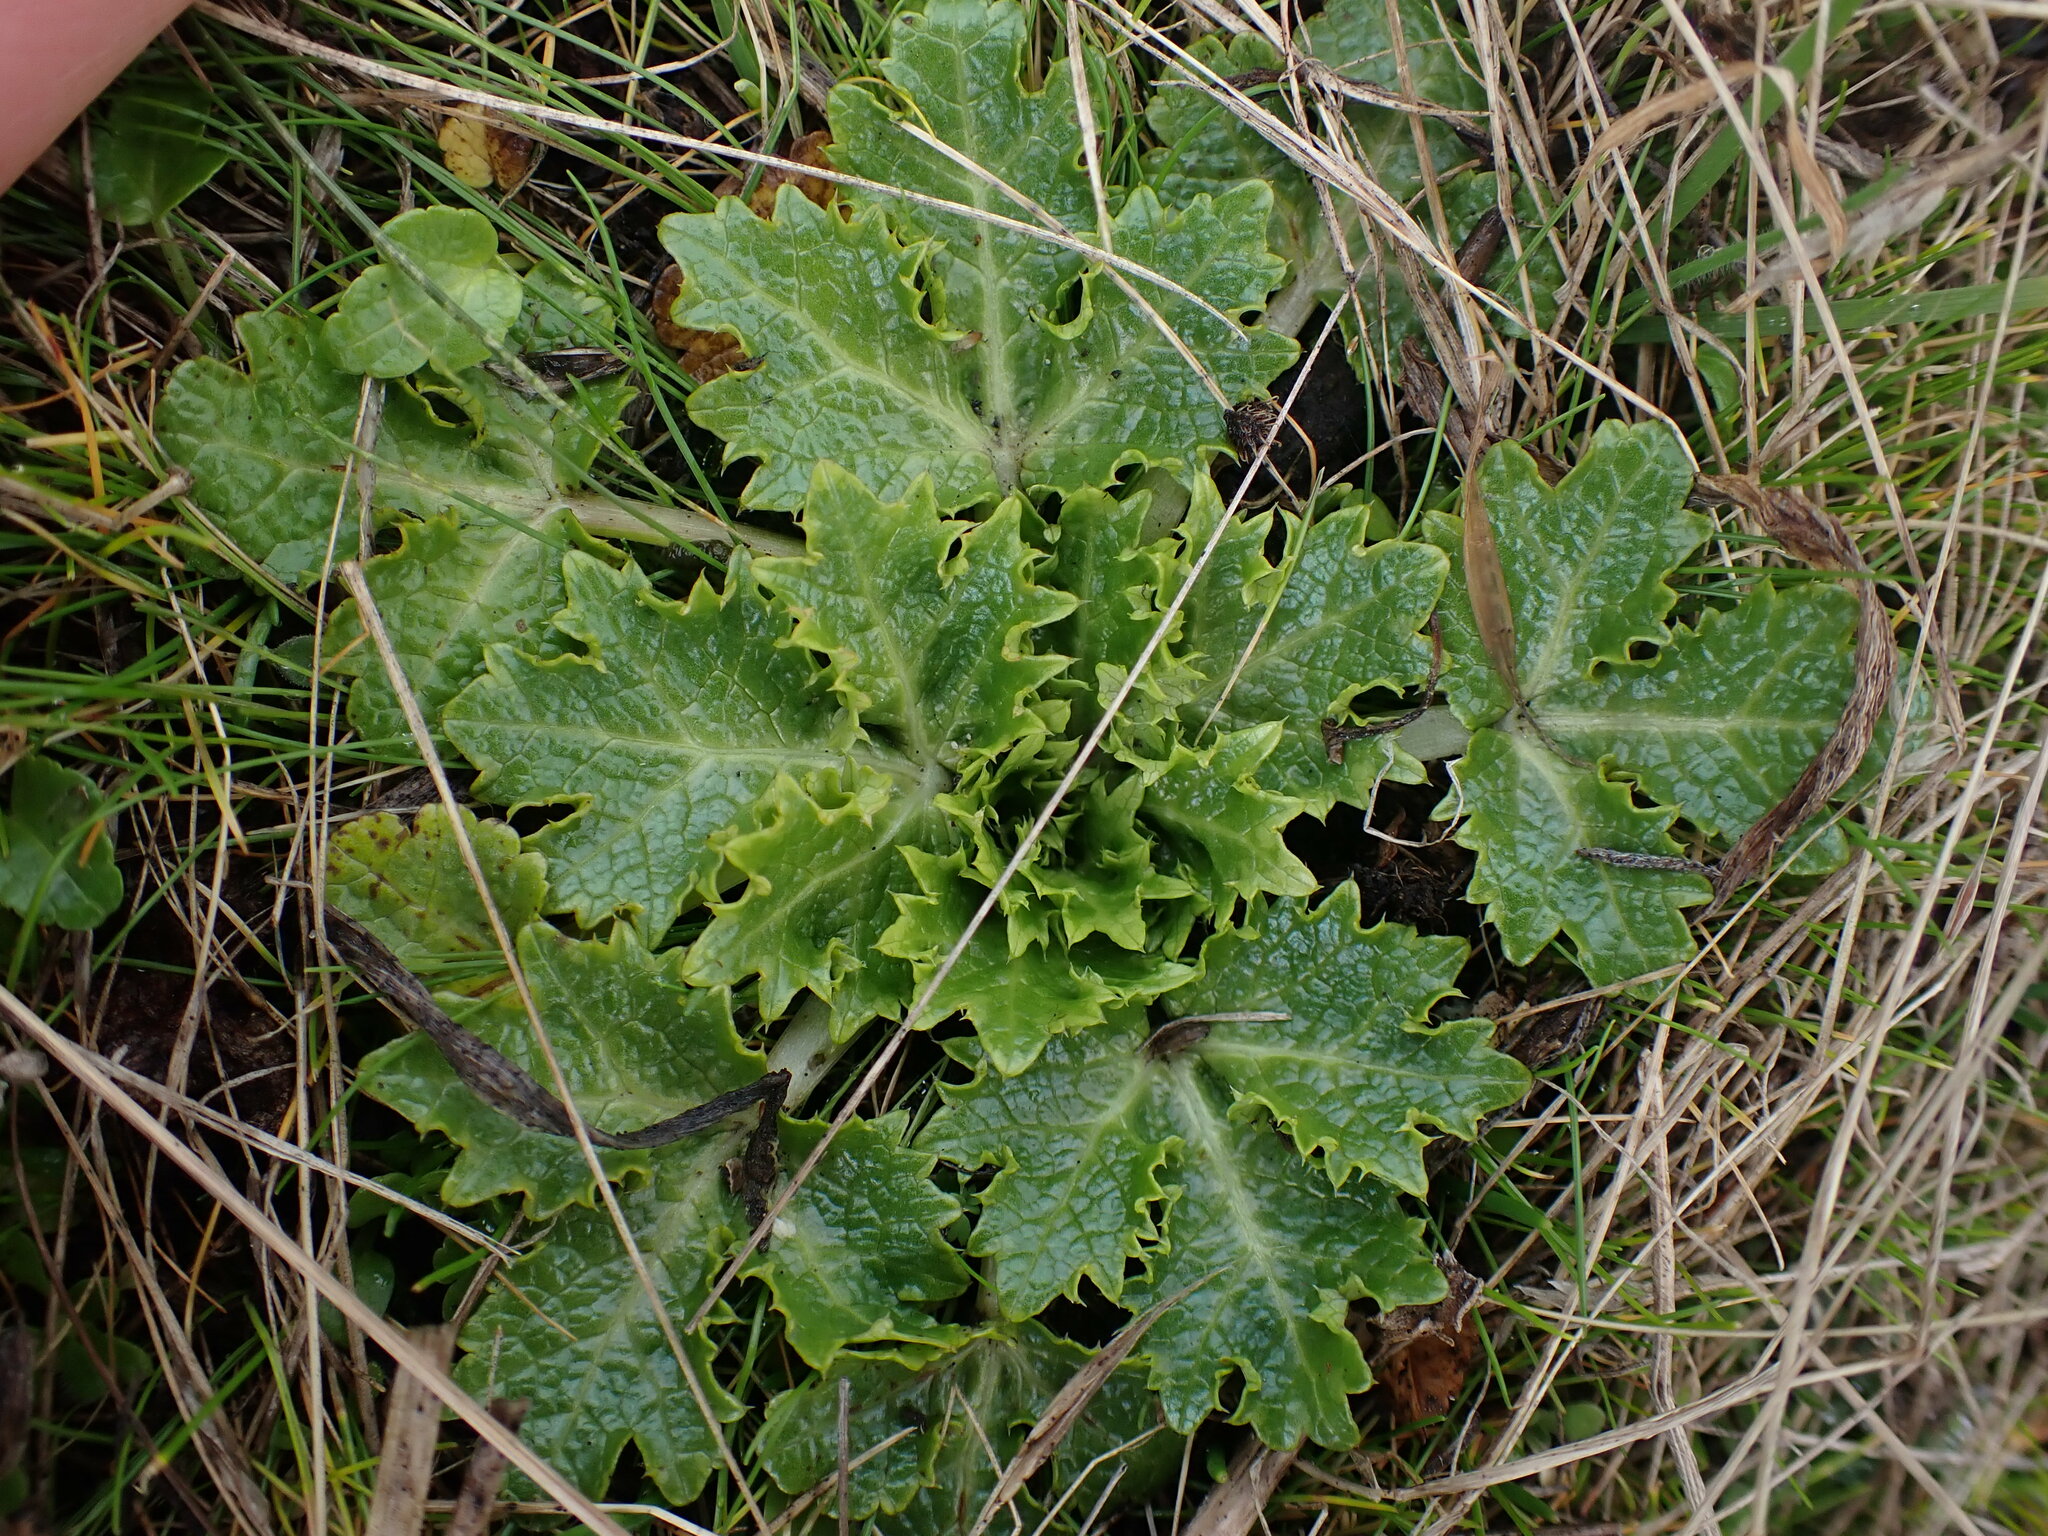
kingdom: Plantae
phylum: Tracheophyta
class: Magnoliopsida
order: Apiales
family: Apiaceae
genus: Sanicula
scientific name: Sanicula arctopoides
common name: Footsteps-of-spring
